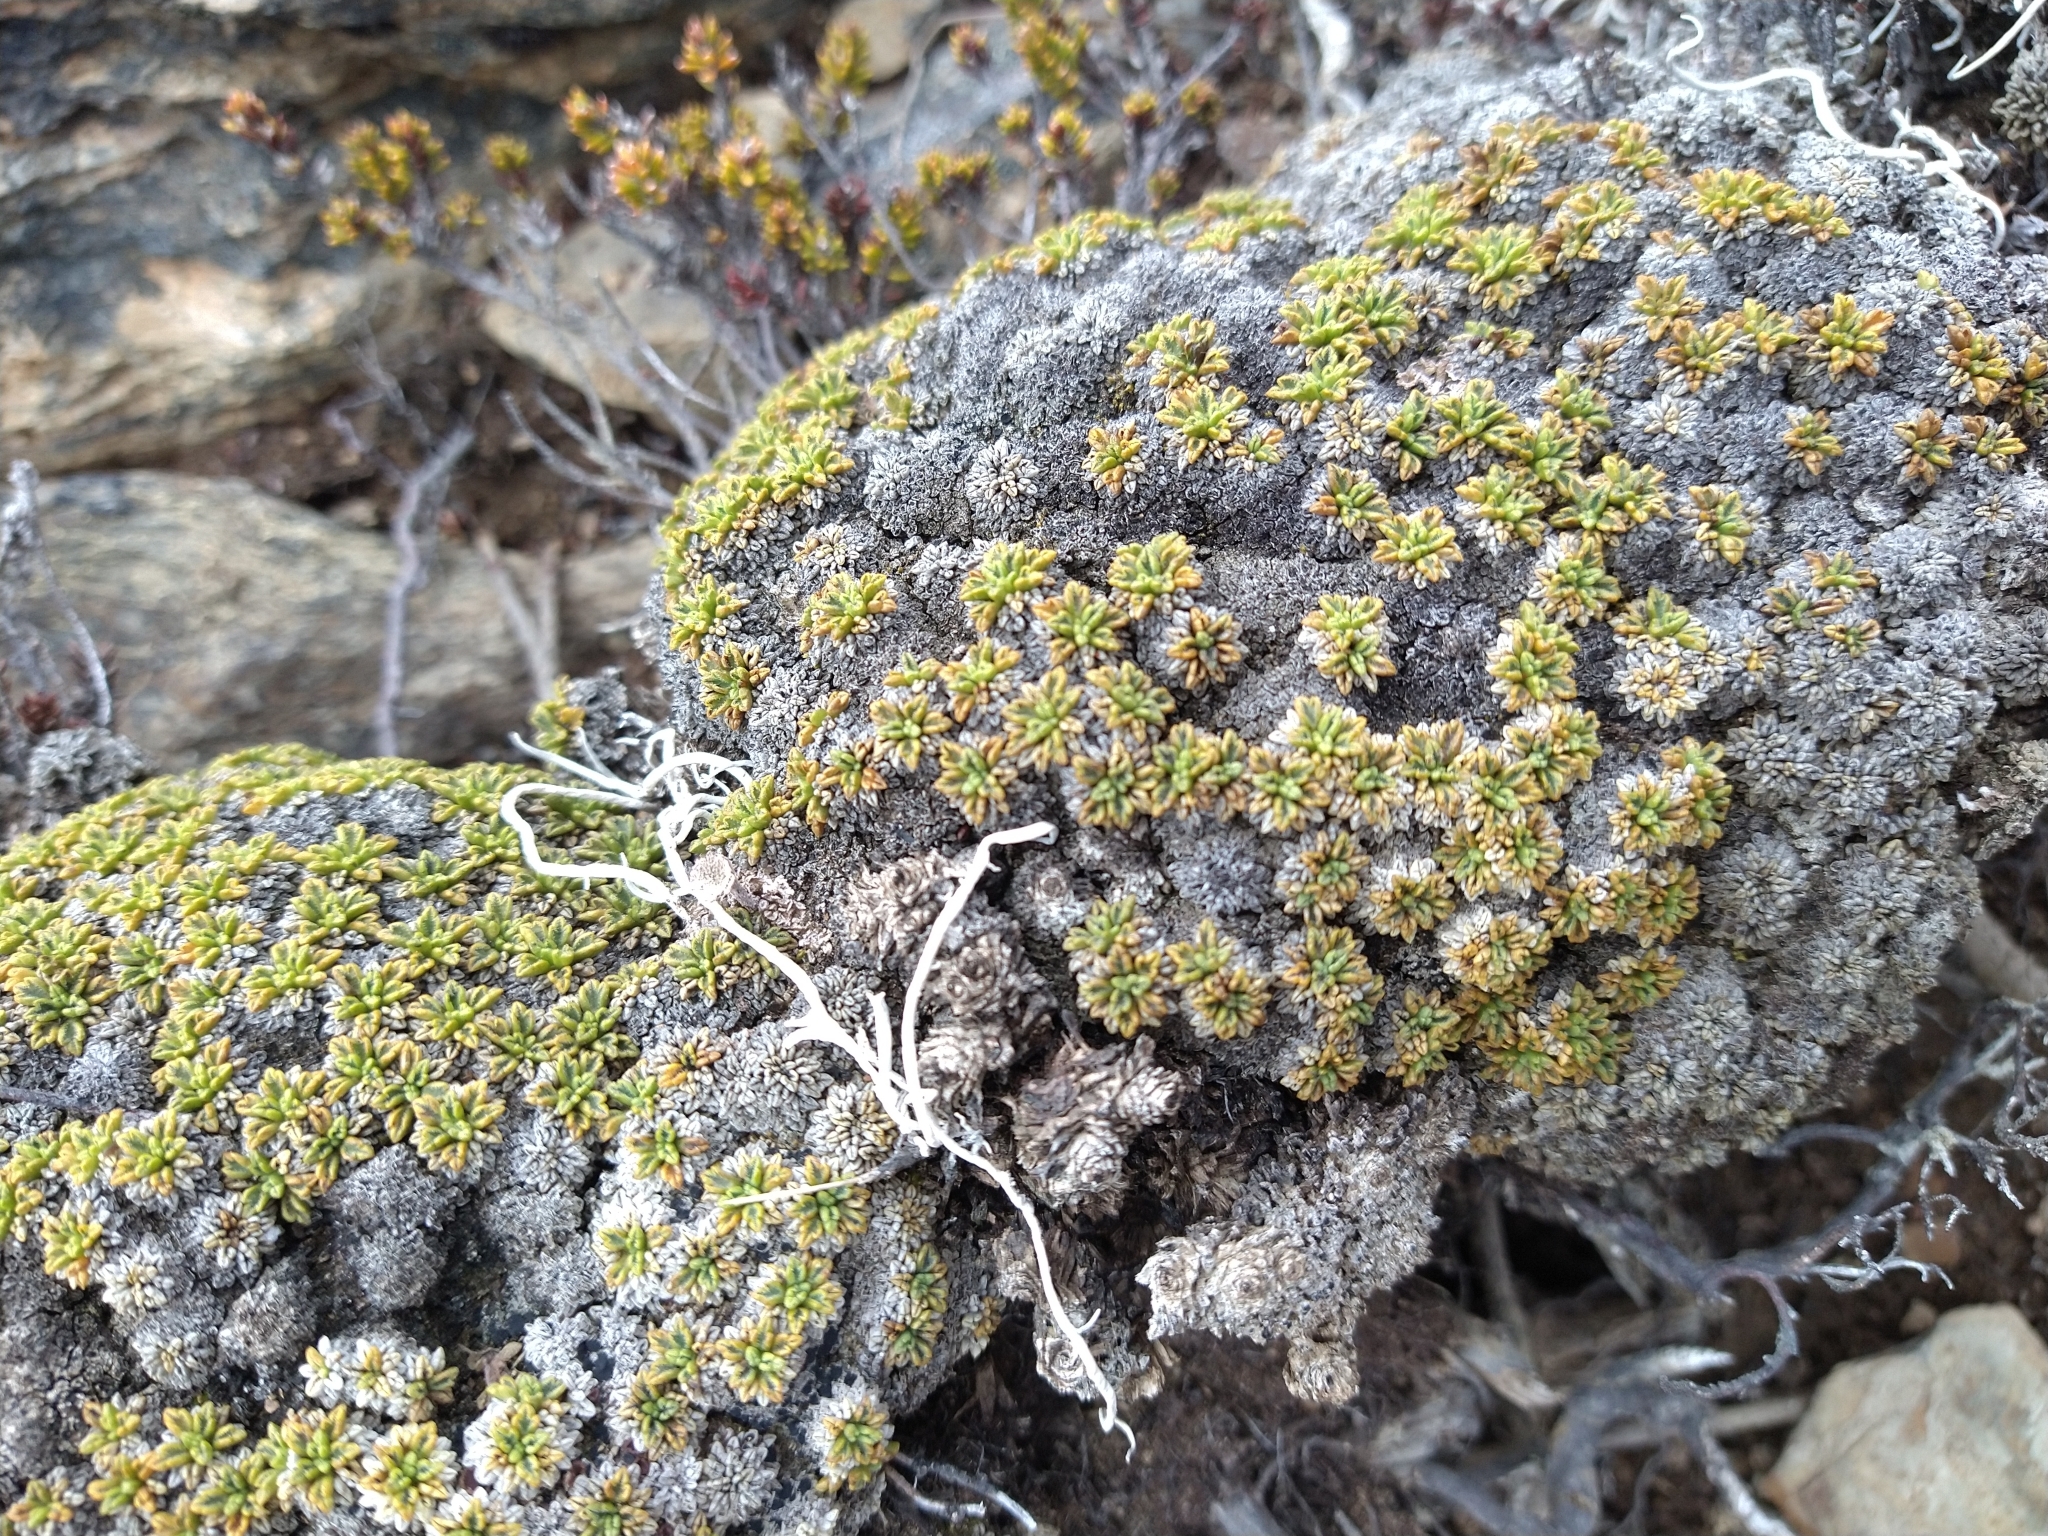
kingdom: Plantae
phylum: Tracheophyta
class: Magnoliopsida
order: Apiales
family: Apiaceae
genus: Bolax
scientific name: Bolax gummifera
